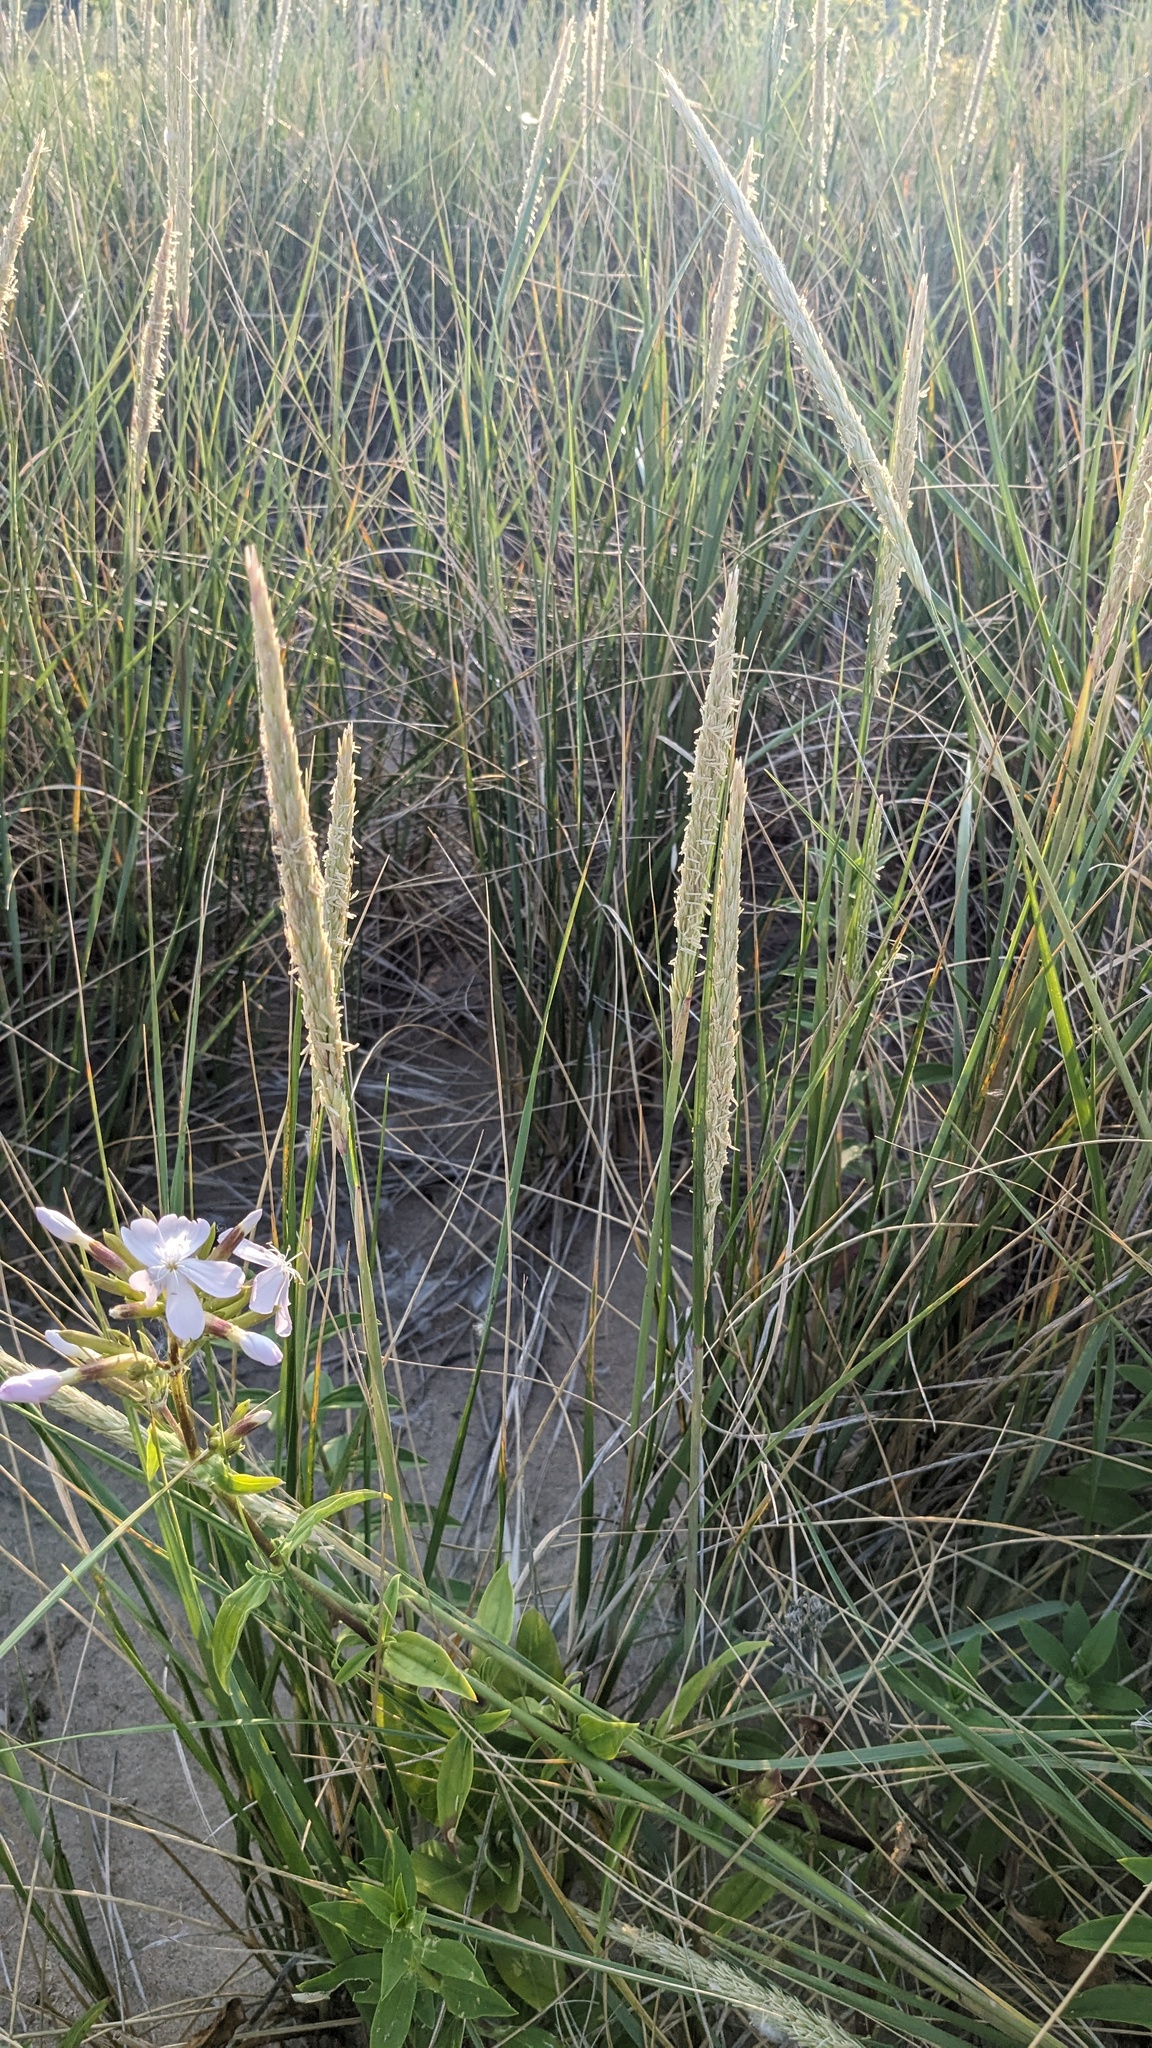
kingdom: Plantae
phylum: Tracheophyta
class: Liliopsida
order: Poales
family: Poaceae
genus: Calamagrostis
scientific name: Calamagrostis breviligulata
